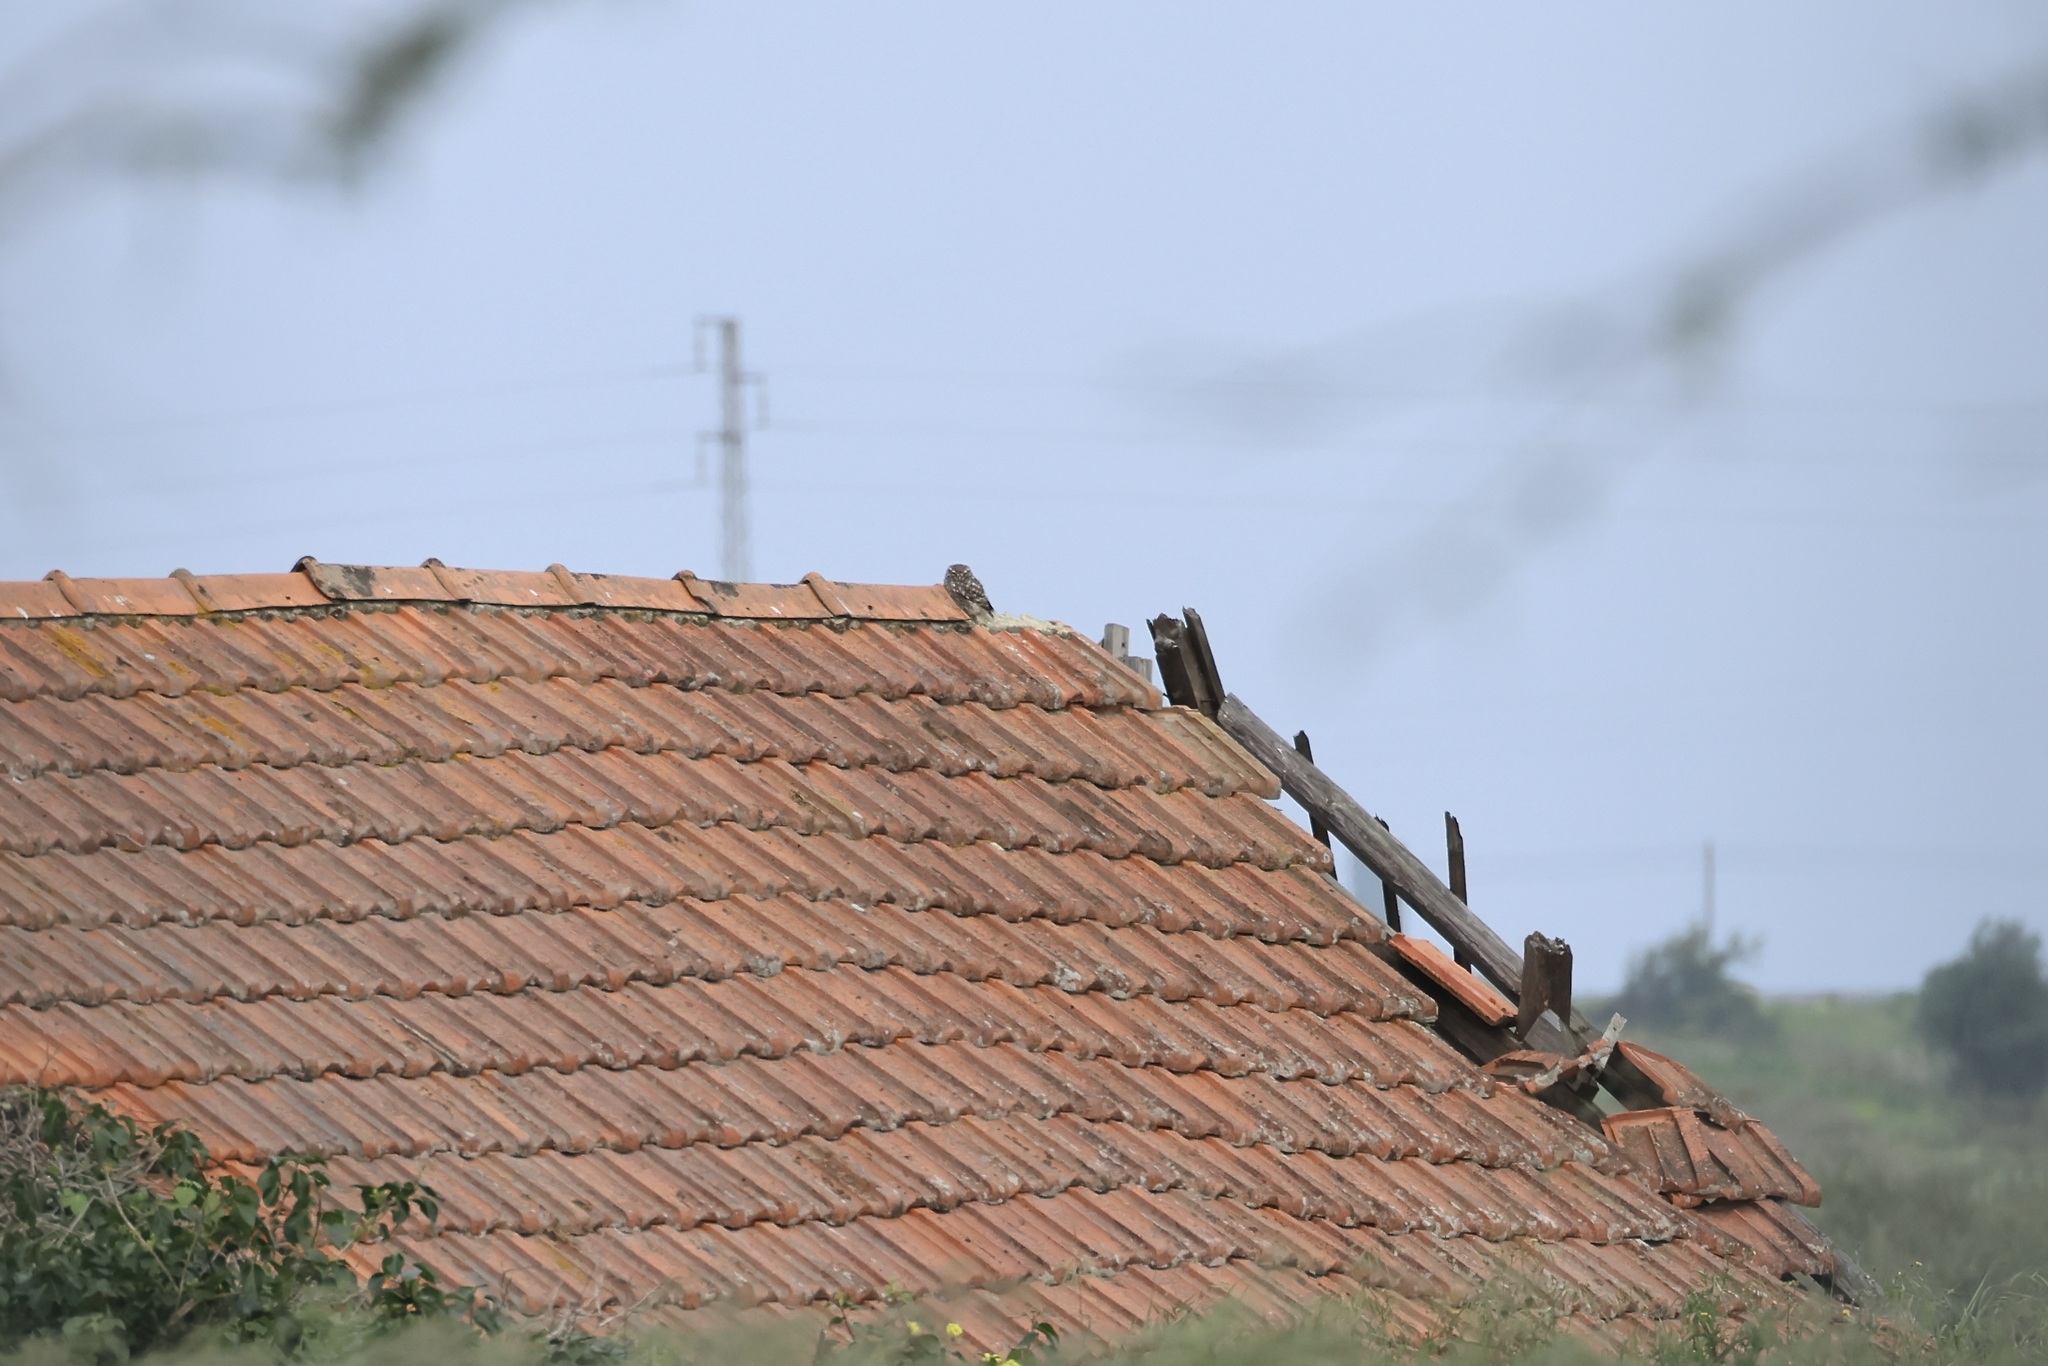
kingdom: Animalia
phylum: Chordata
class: Aves
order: Strigiformes
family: Strigidae
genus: Athene
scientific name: Athene noctua
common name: Little owl
